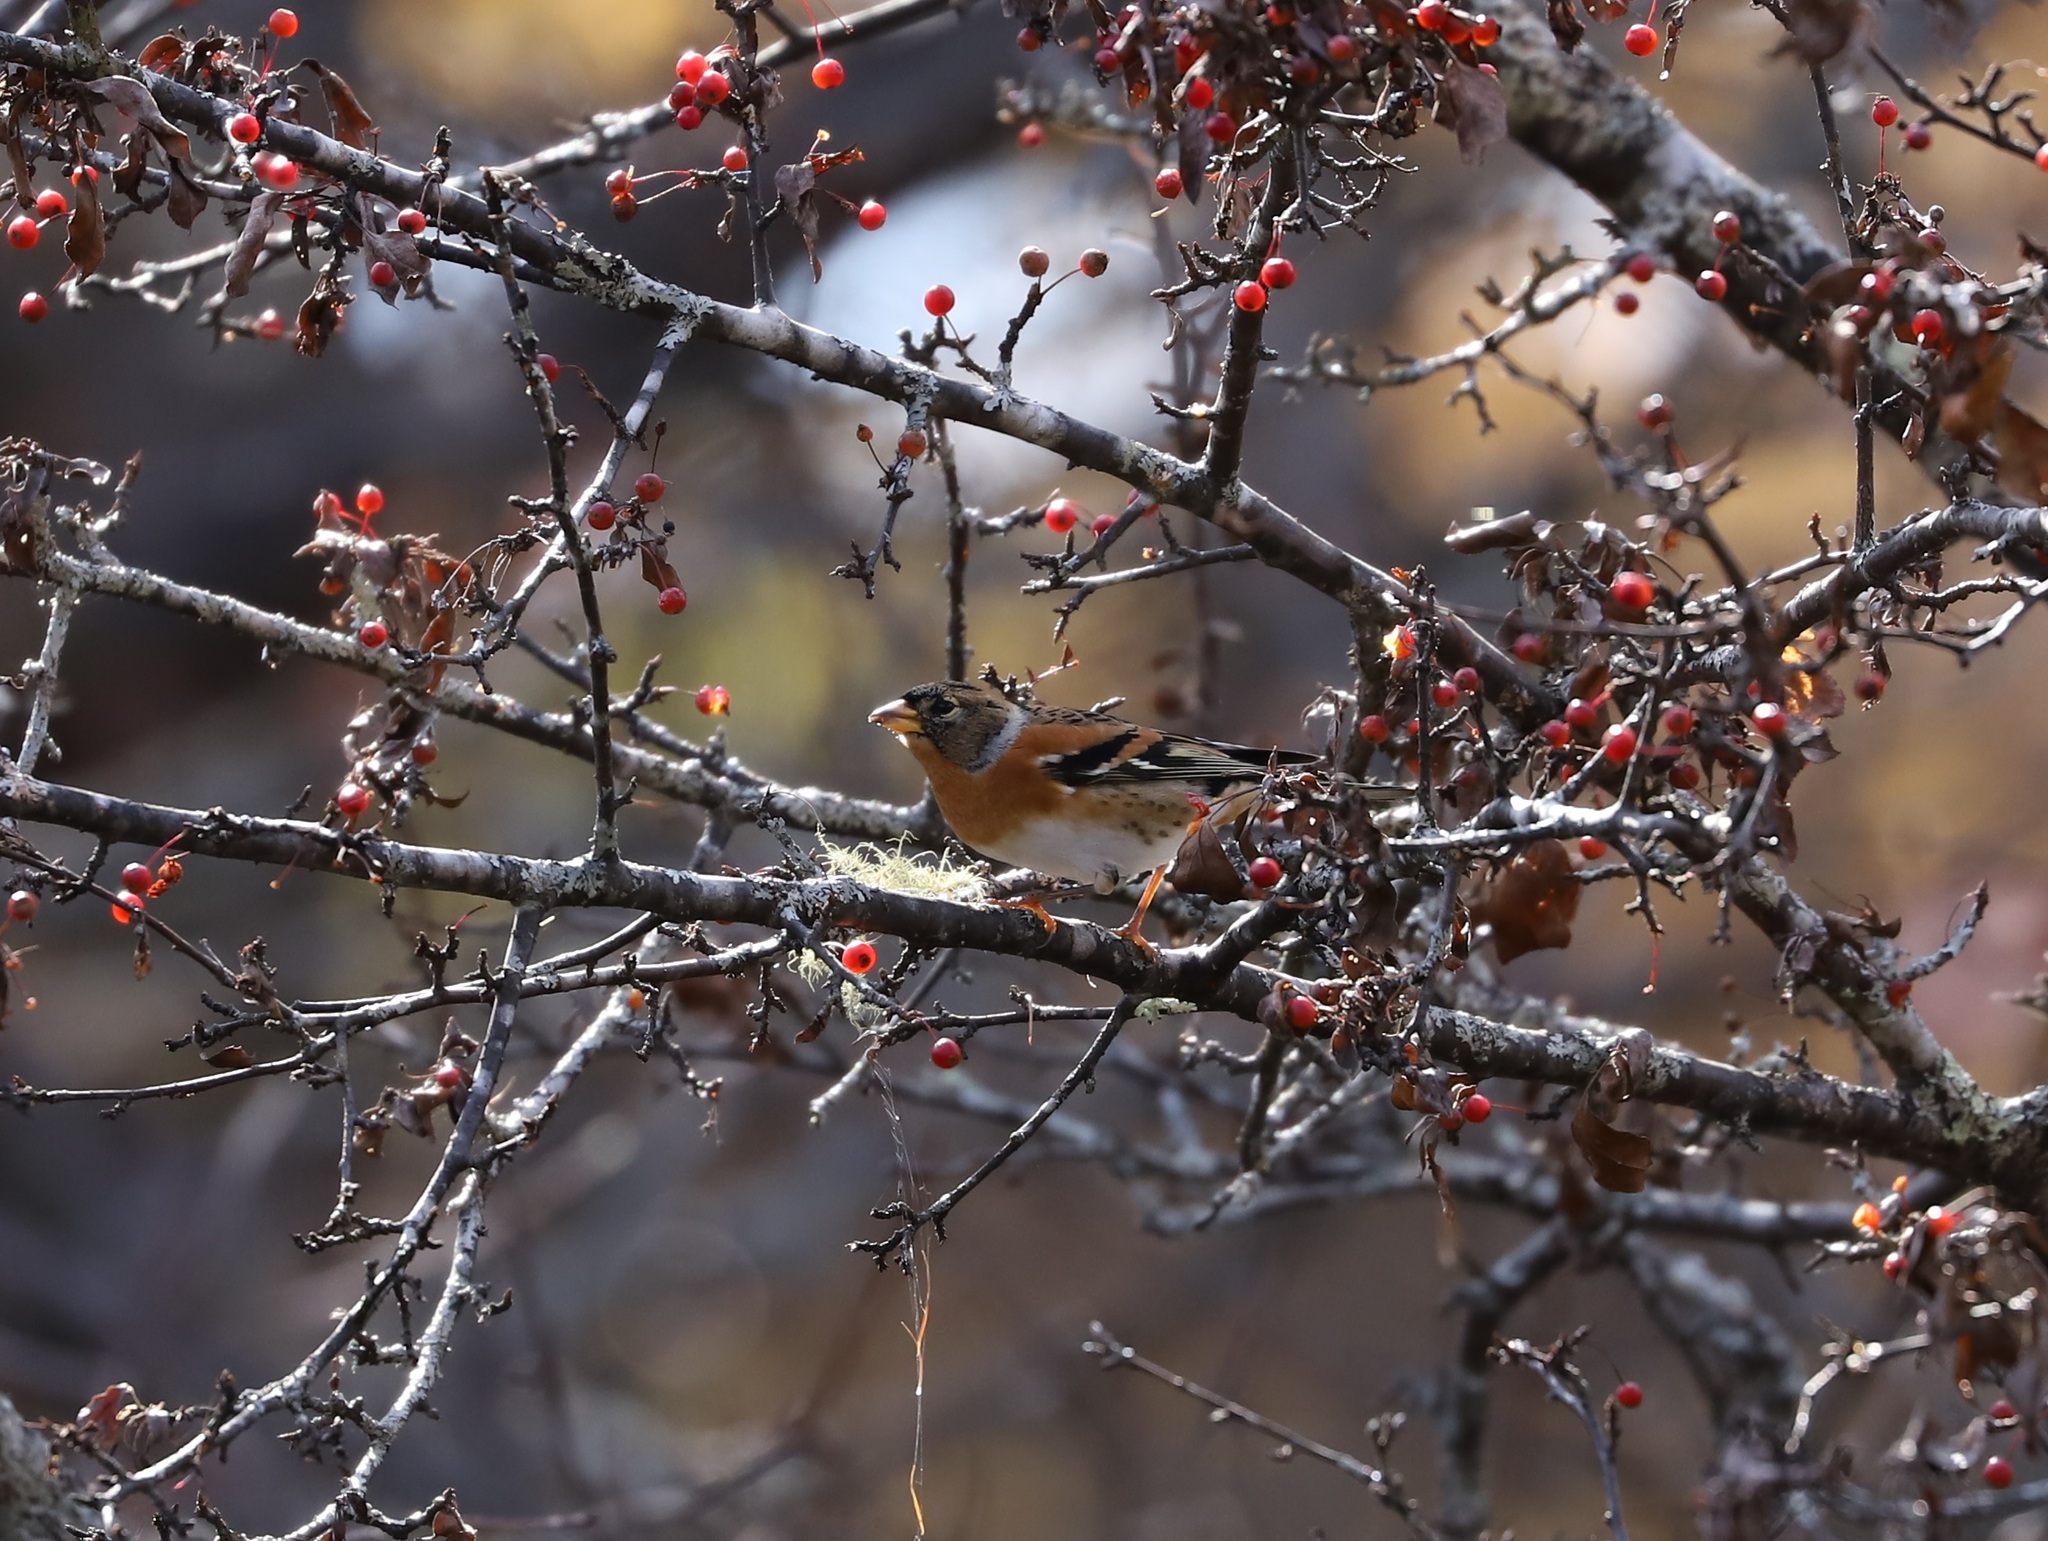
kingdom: Animalia
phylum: Chordata
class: Aves
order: Passeriformes
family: Fringillidae
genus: Fringilla
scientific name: Fringilla montifringilla
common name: Brambling
